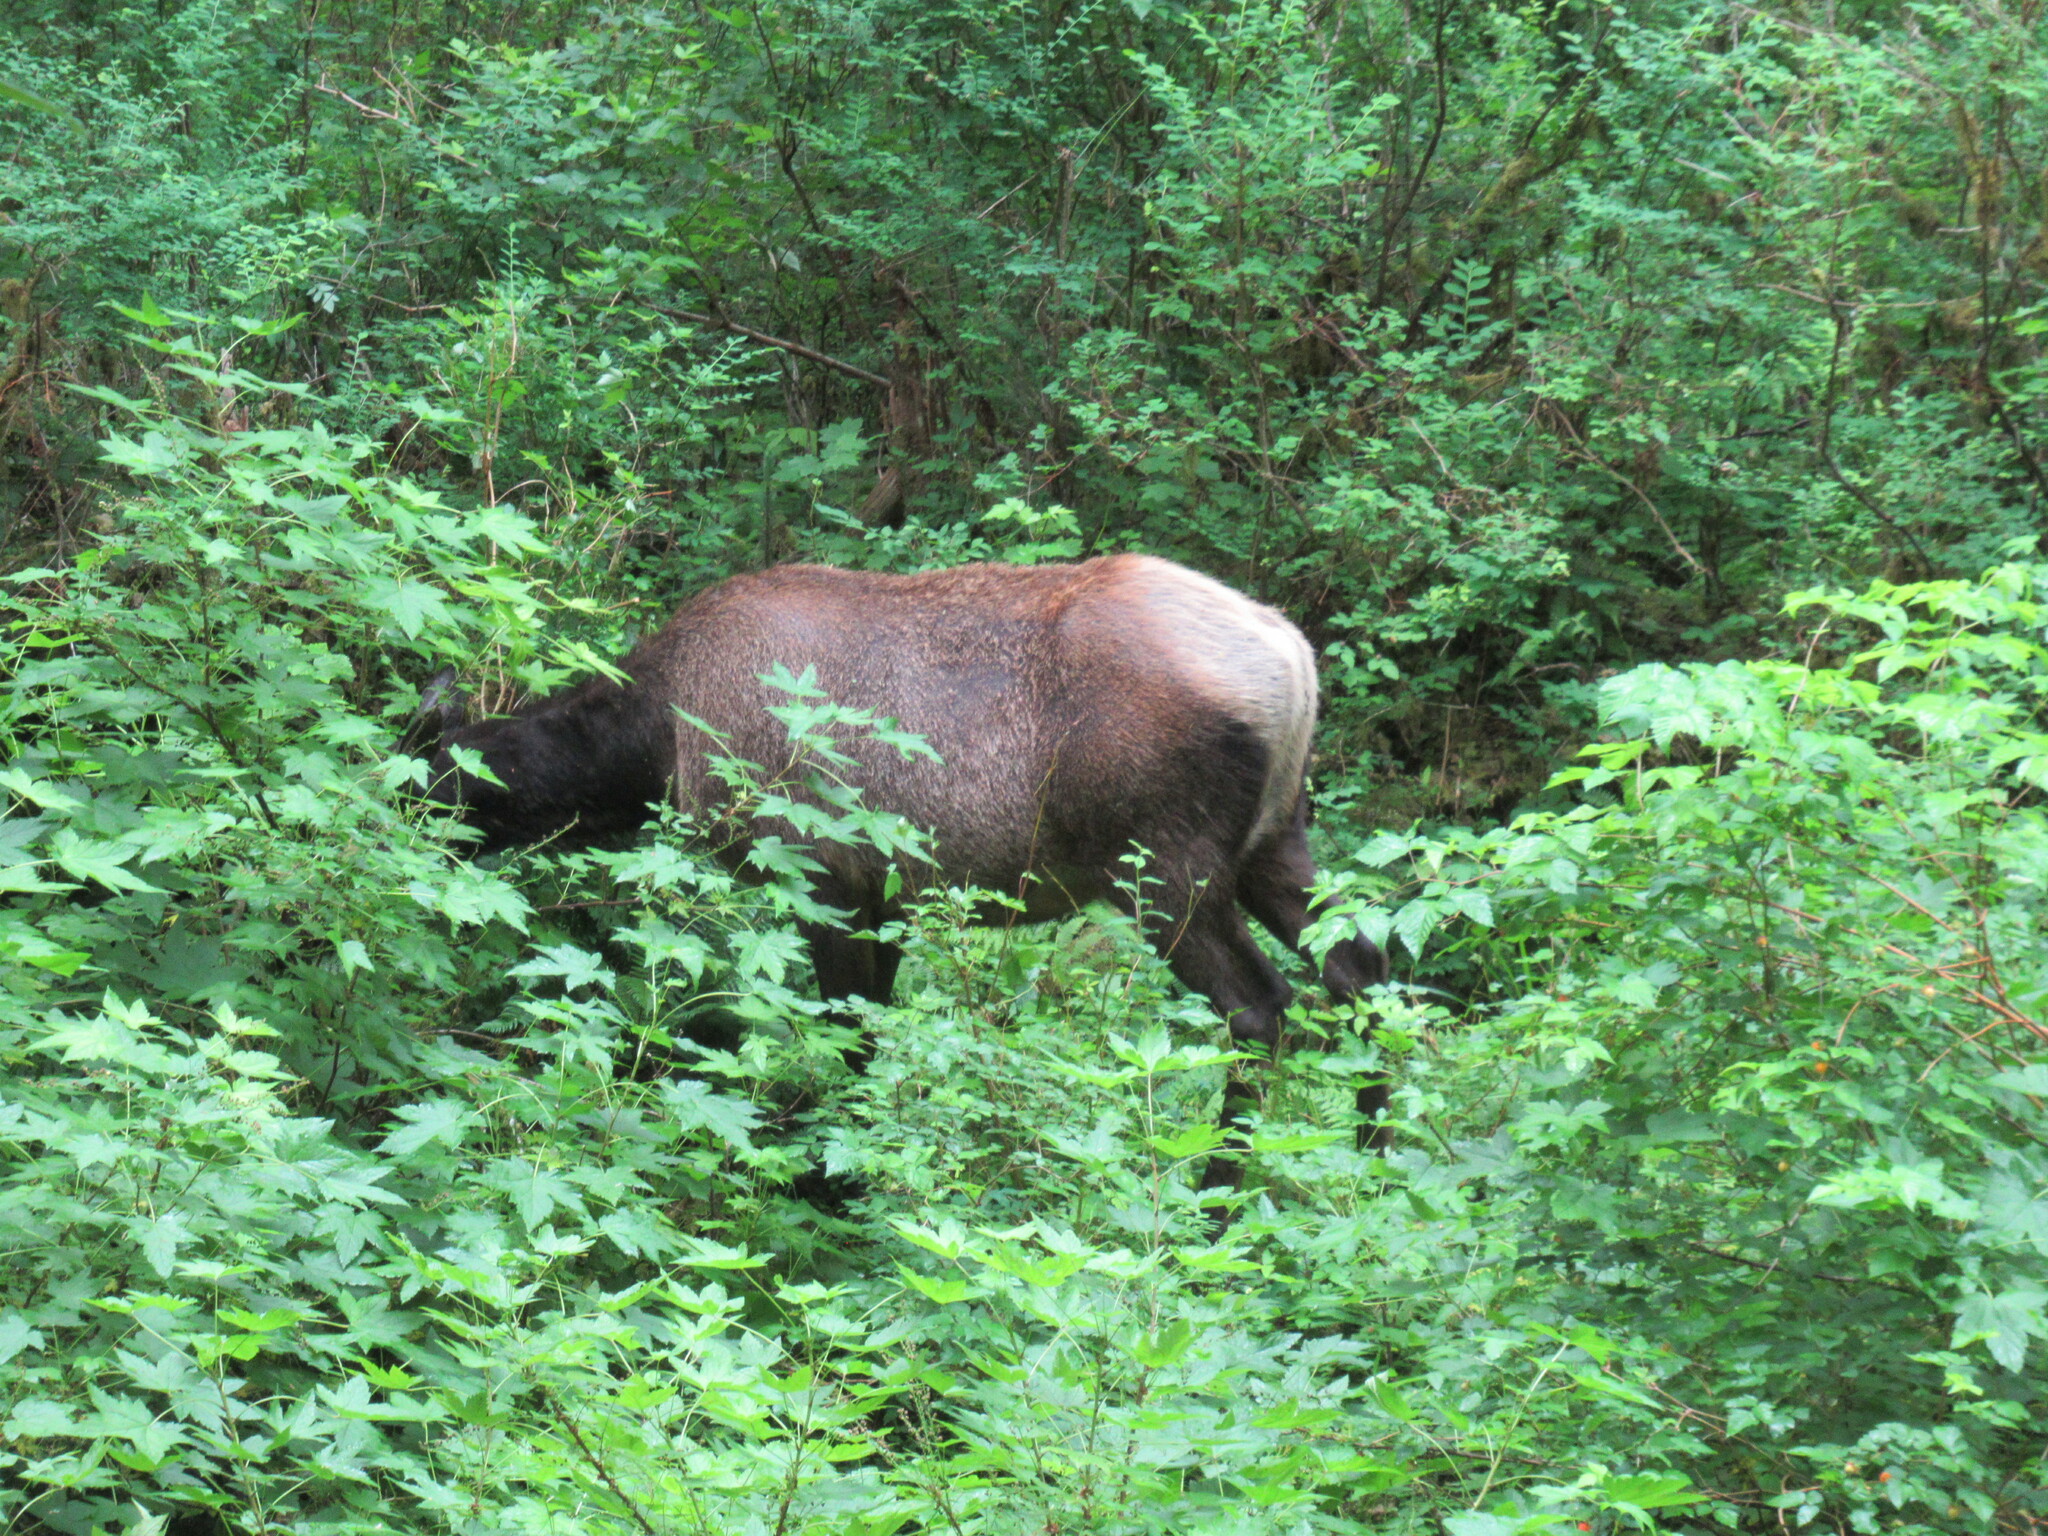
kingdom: Animalia
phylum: Chordata
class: Mammalia
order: Artiodactyla
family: Cervidae
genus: Cervus
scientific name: Cervus elaphus
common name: Red deer
